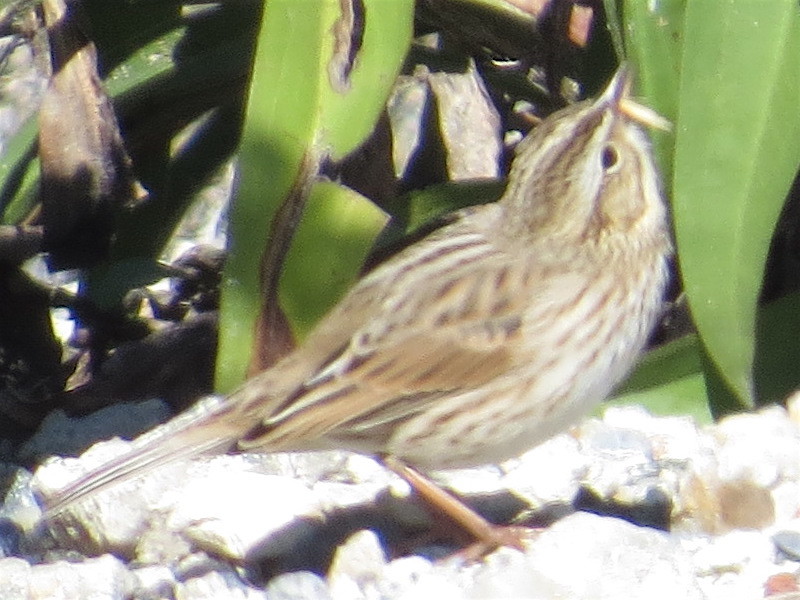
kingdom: Animalia
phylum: Chordata
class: Aves
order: Passeriformes
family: Passerellidae
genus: Passerculus
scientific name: Passerculus sandwichensis
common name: Savannah sparrow
